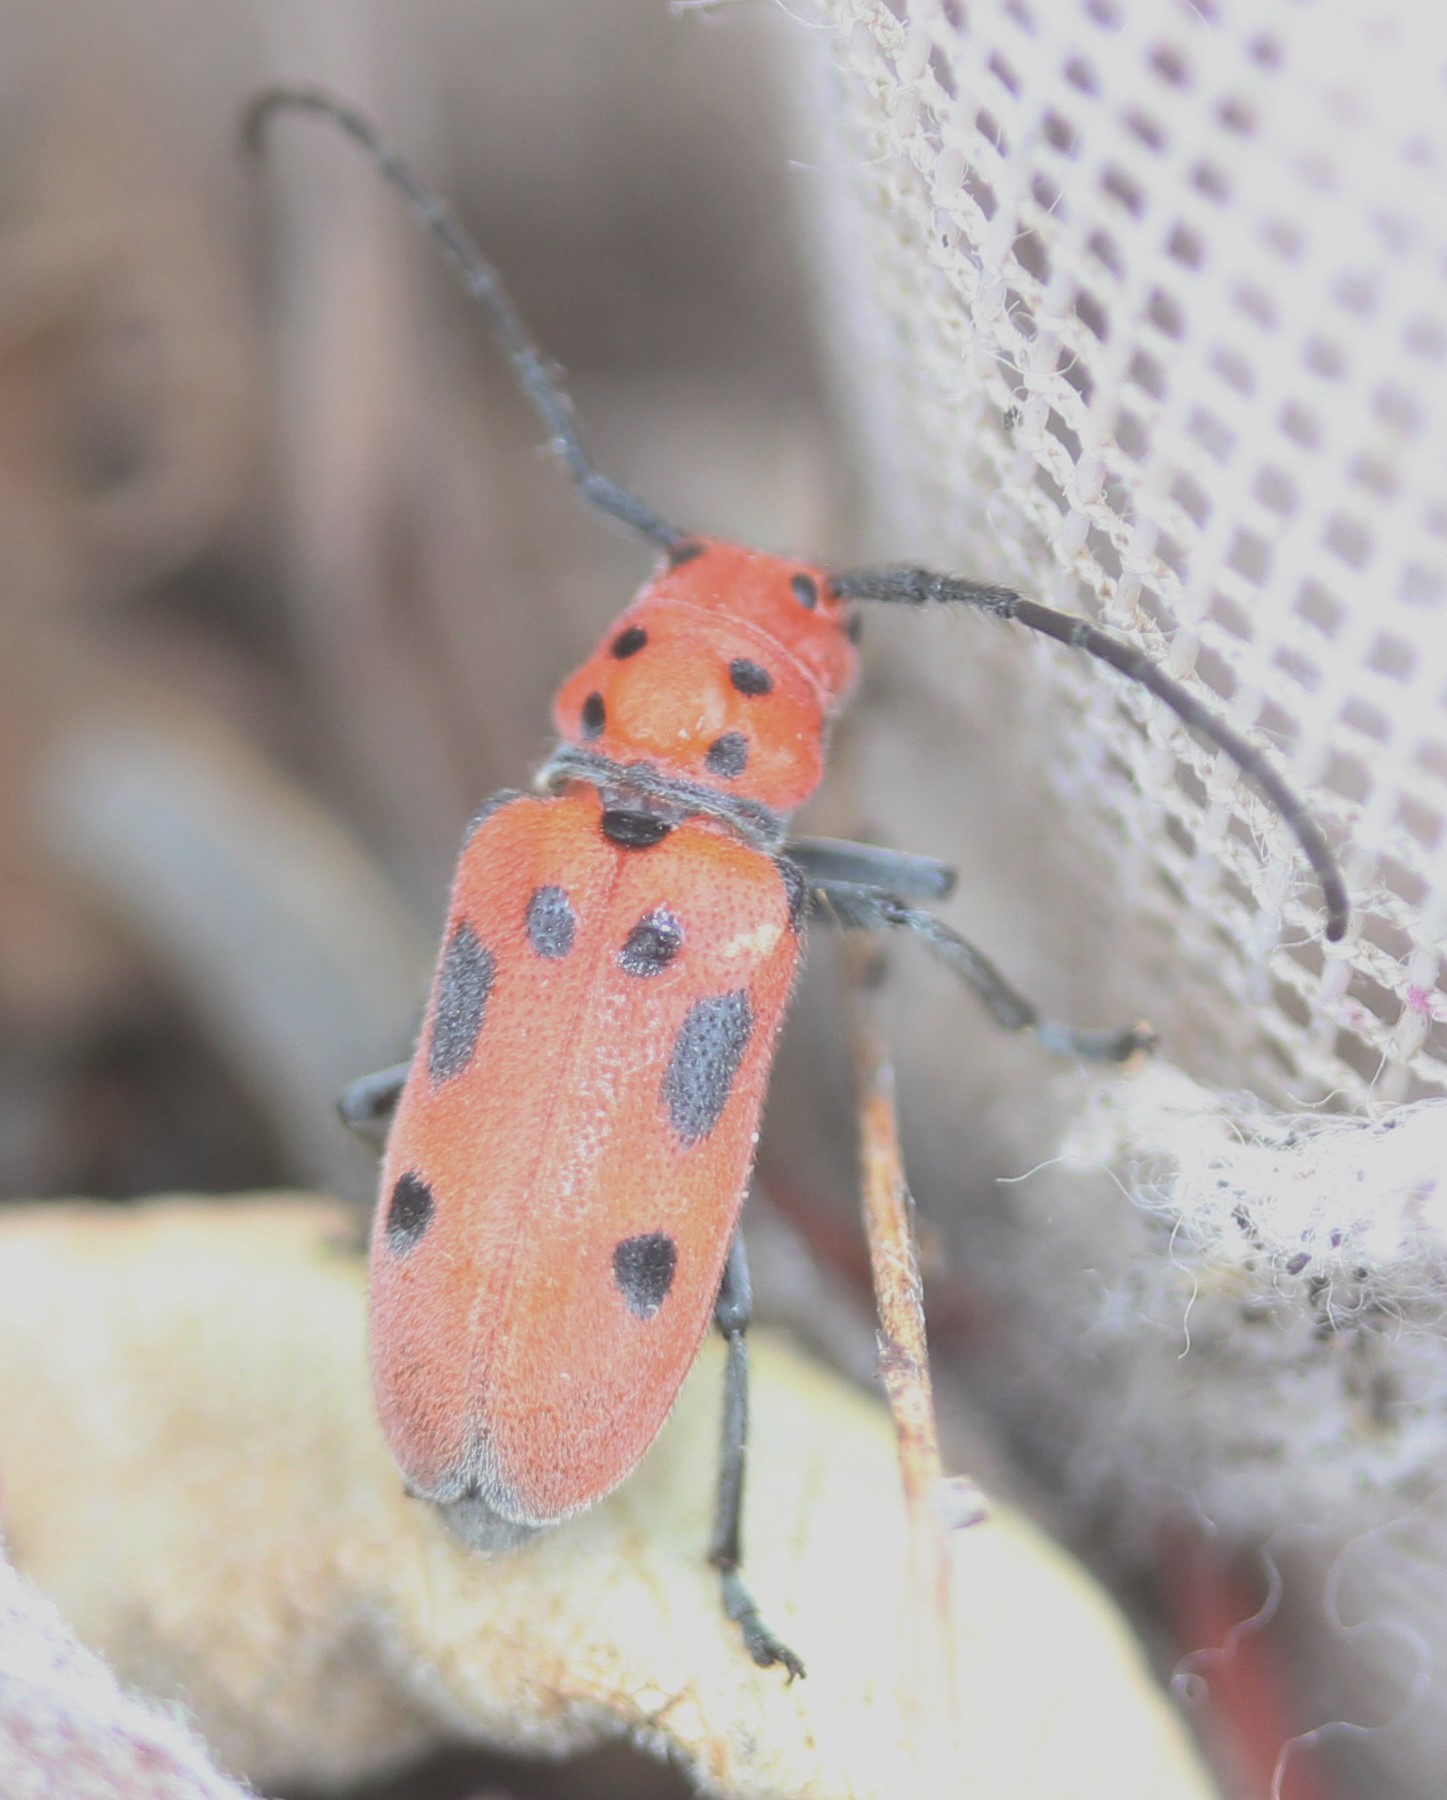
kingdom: Animalia
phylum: Arthropoda
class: Insecta
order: Coleoptera
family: Cerambycidae
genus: Tetraopes
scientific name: Tetraopes tetrophthalmus
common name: Red milkweed beetle
